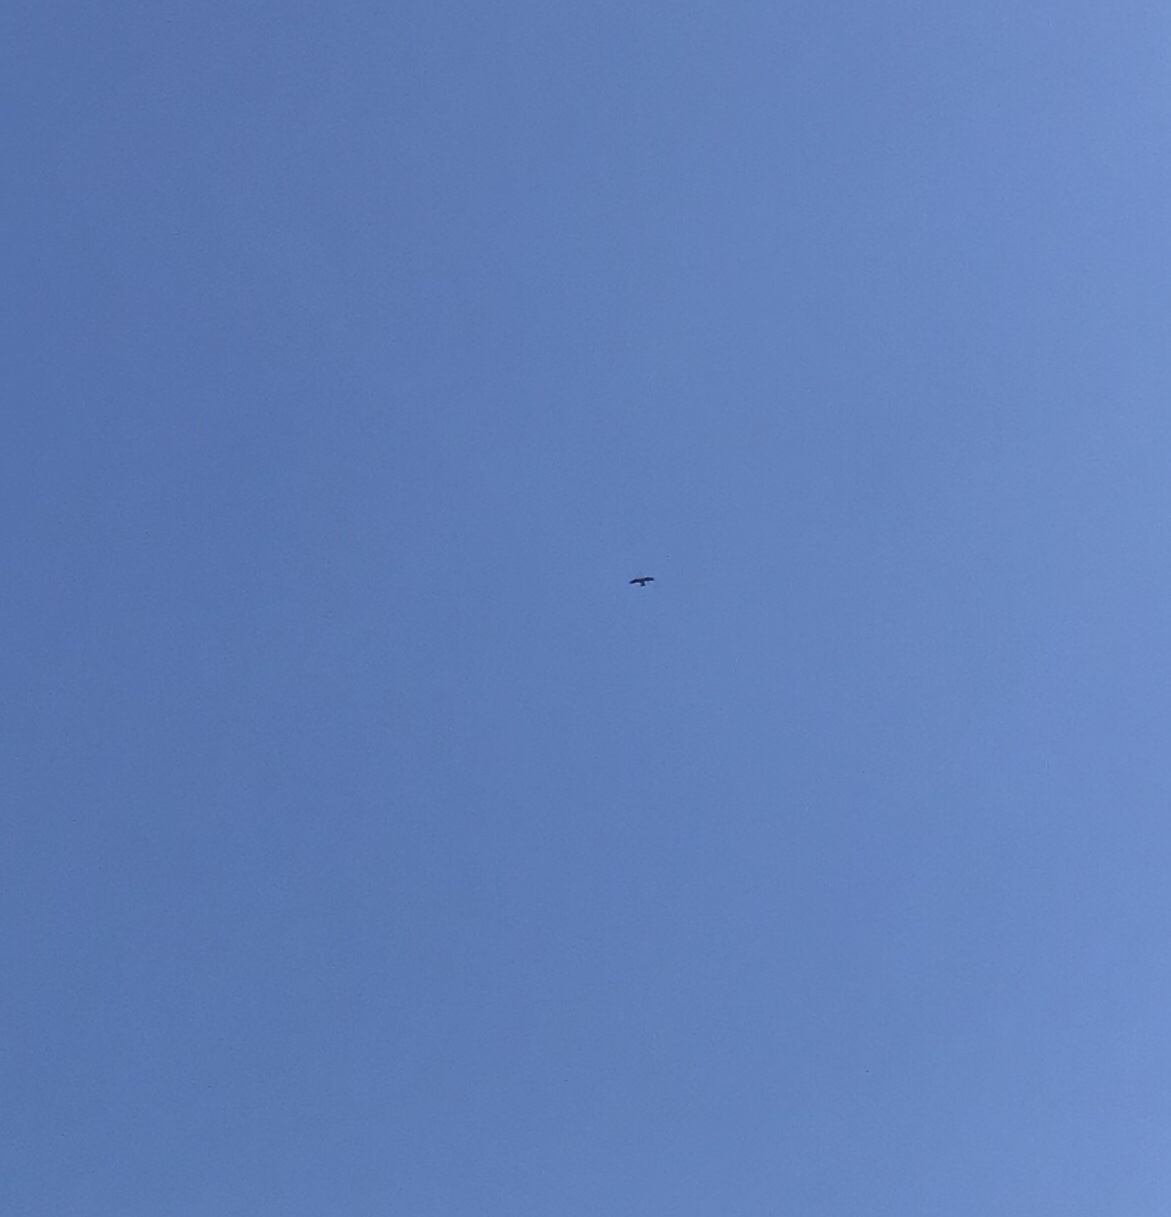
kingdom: Animalia
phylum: Chordata
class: Aves
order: Accipitriformes
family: Accipitridae
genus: Ictinia
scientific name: Ictinia mississippiensis
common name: Mississippi kite
